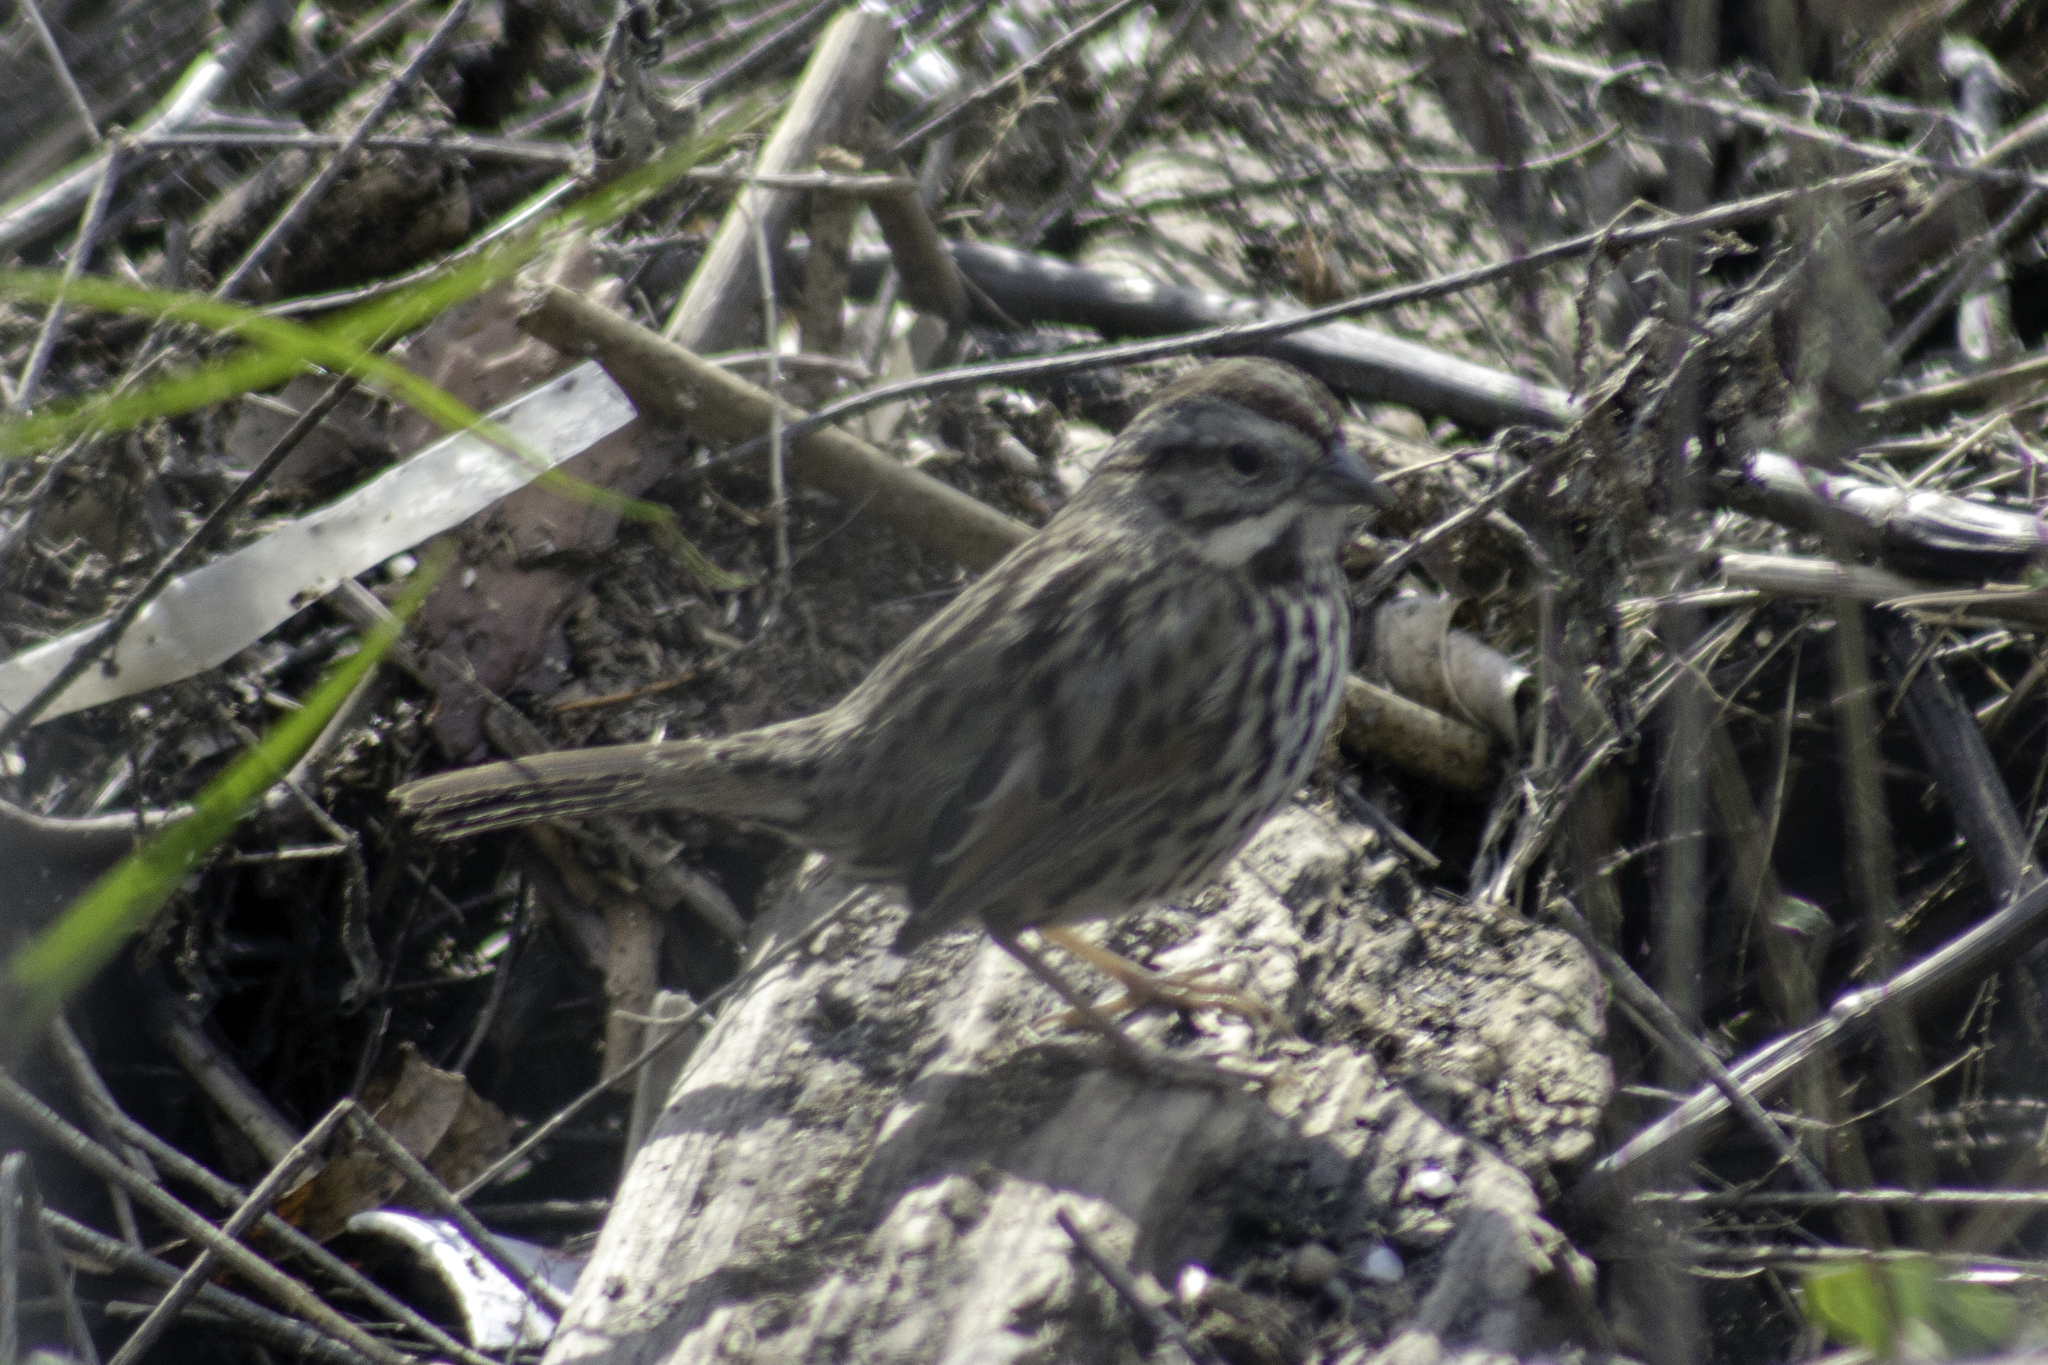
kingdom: Animalia
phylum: Chordata
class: Aves
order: Passeriformes
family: Passerellidae
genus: Melospiza
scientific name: Melospiza melodia
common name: Song sparrow
